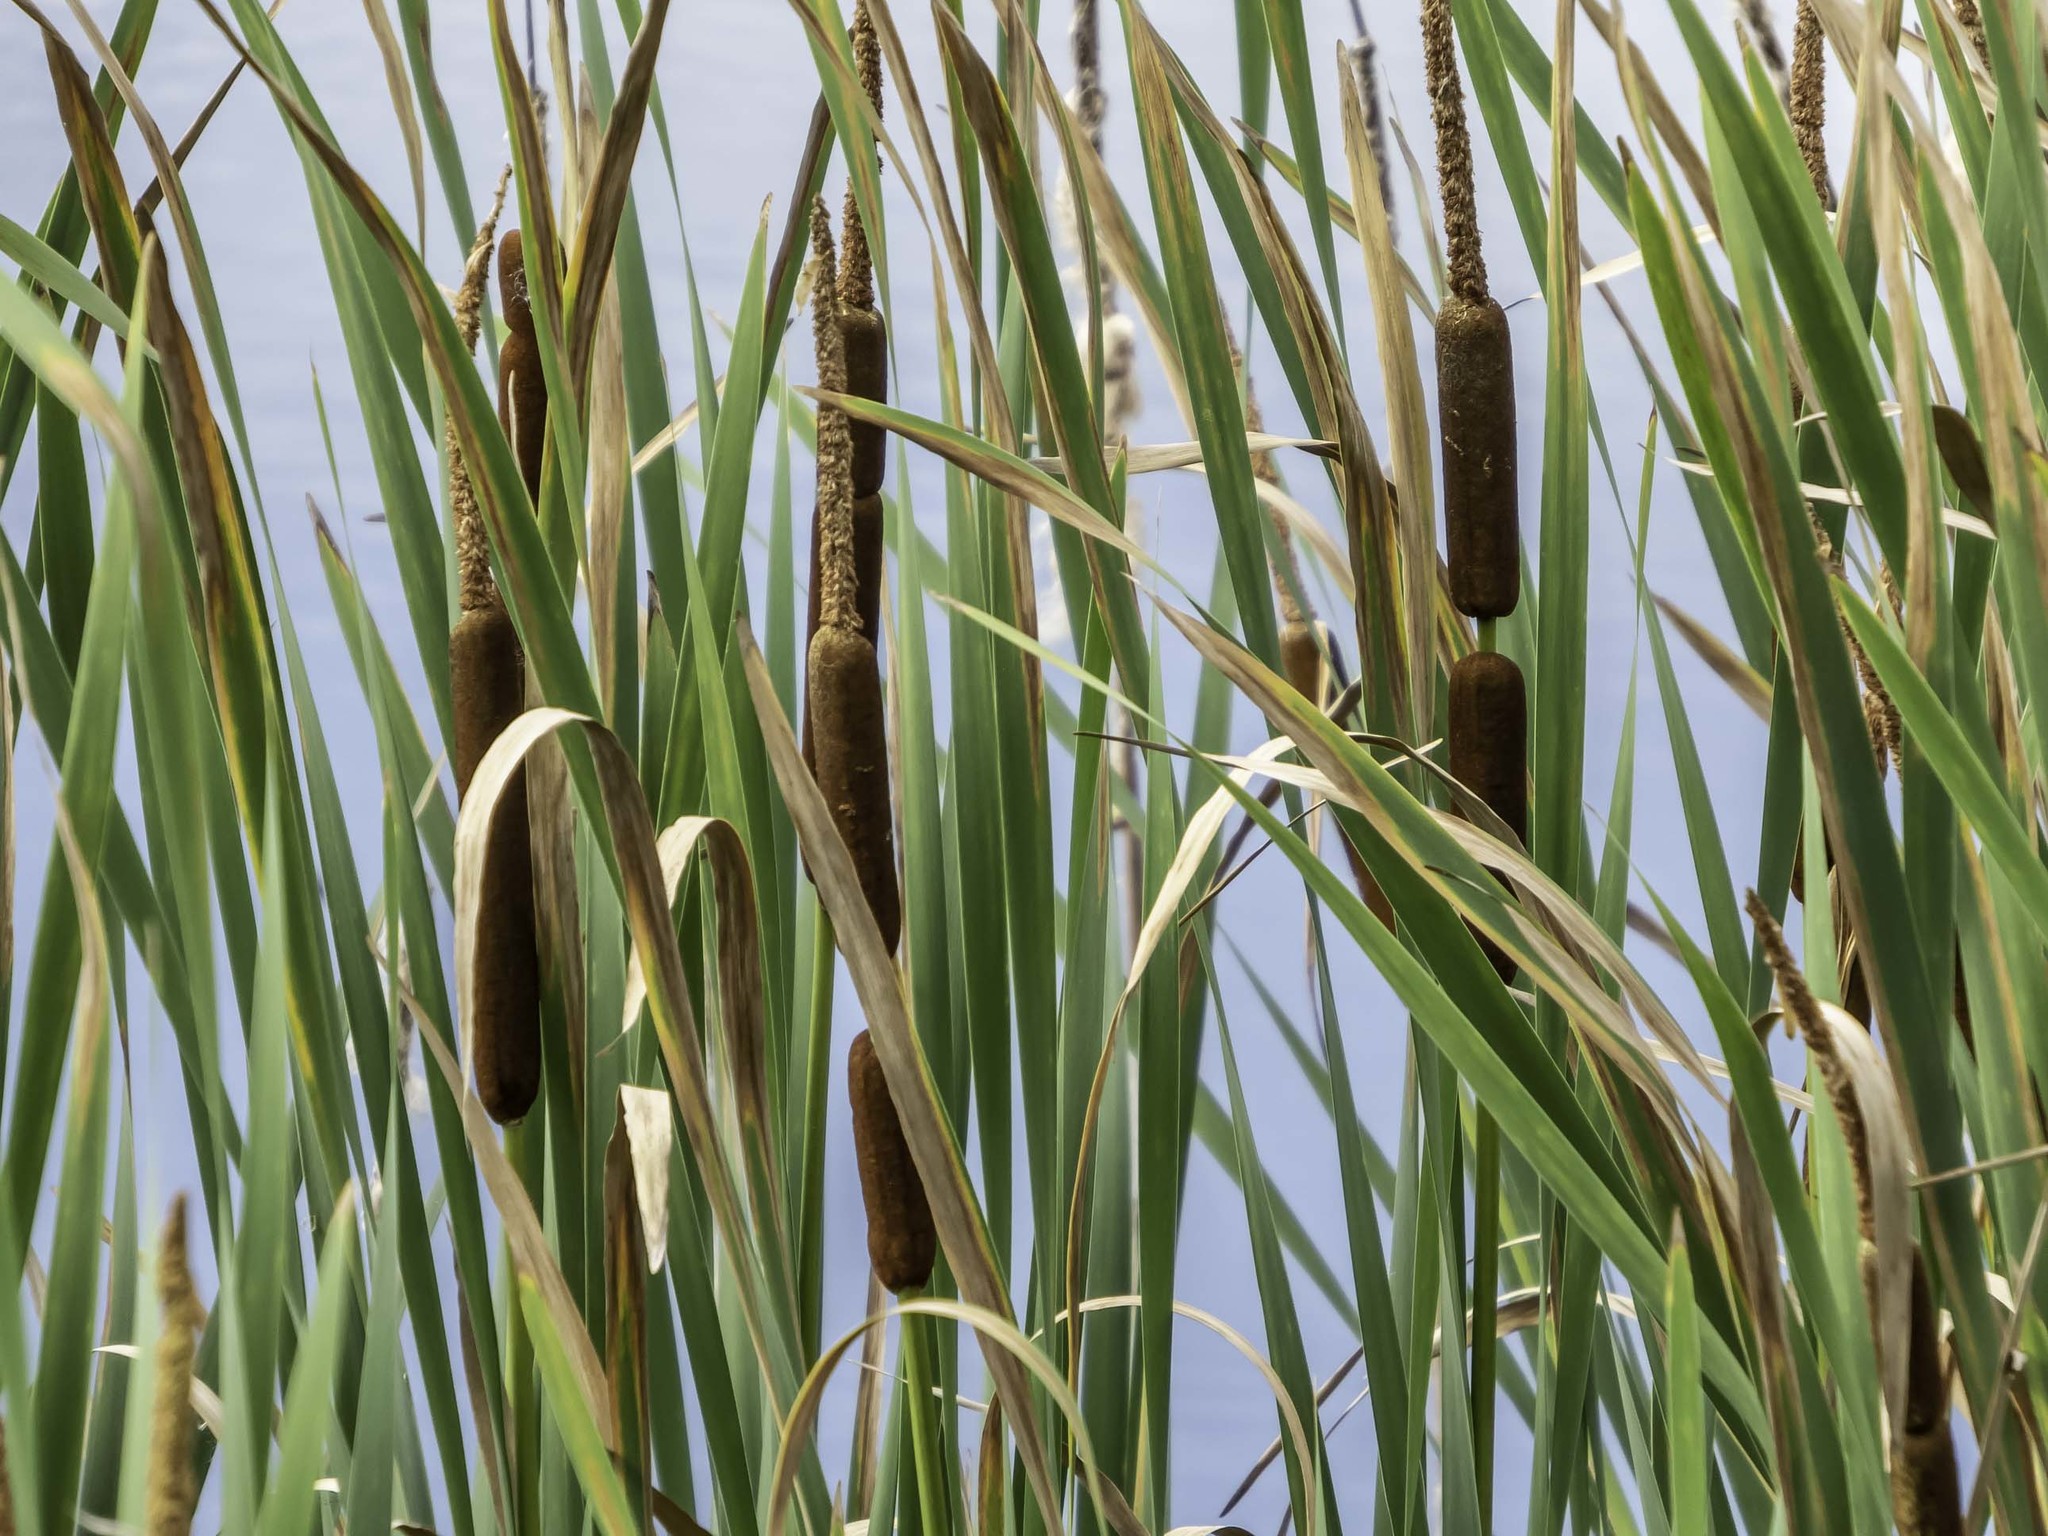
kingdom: Plantae
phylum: Tracheophyta
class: Liliopsida
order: Poales
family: Typhaceae
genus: Typha
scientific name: Typha latifolia
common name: Broadleaf cattail
